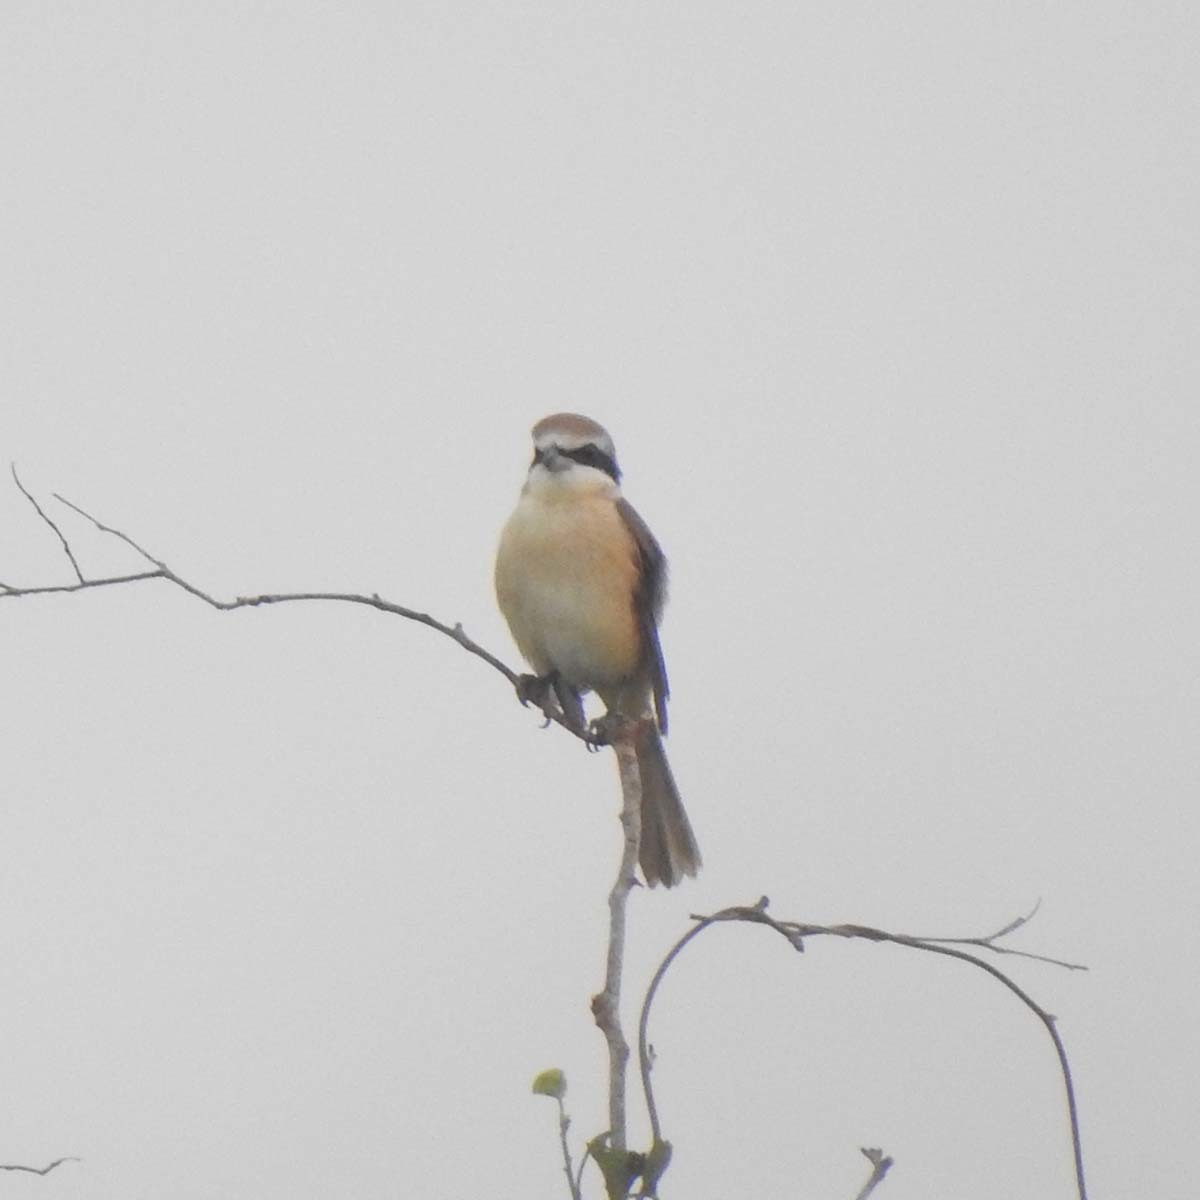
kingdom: Animalia
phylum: Chordata
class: Aves
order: Passeriformes
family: Laniidae
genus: Lanius
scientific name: Lanius cristatus
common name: Brown shrike
